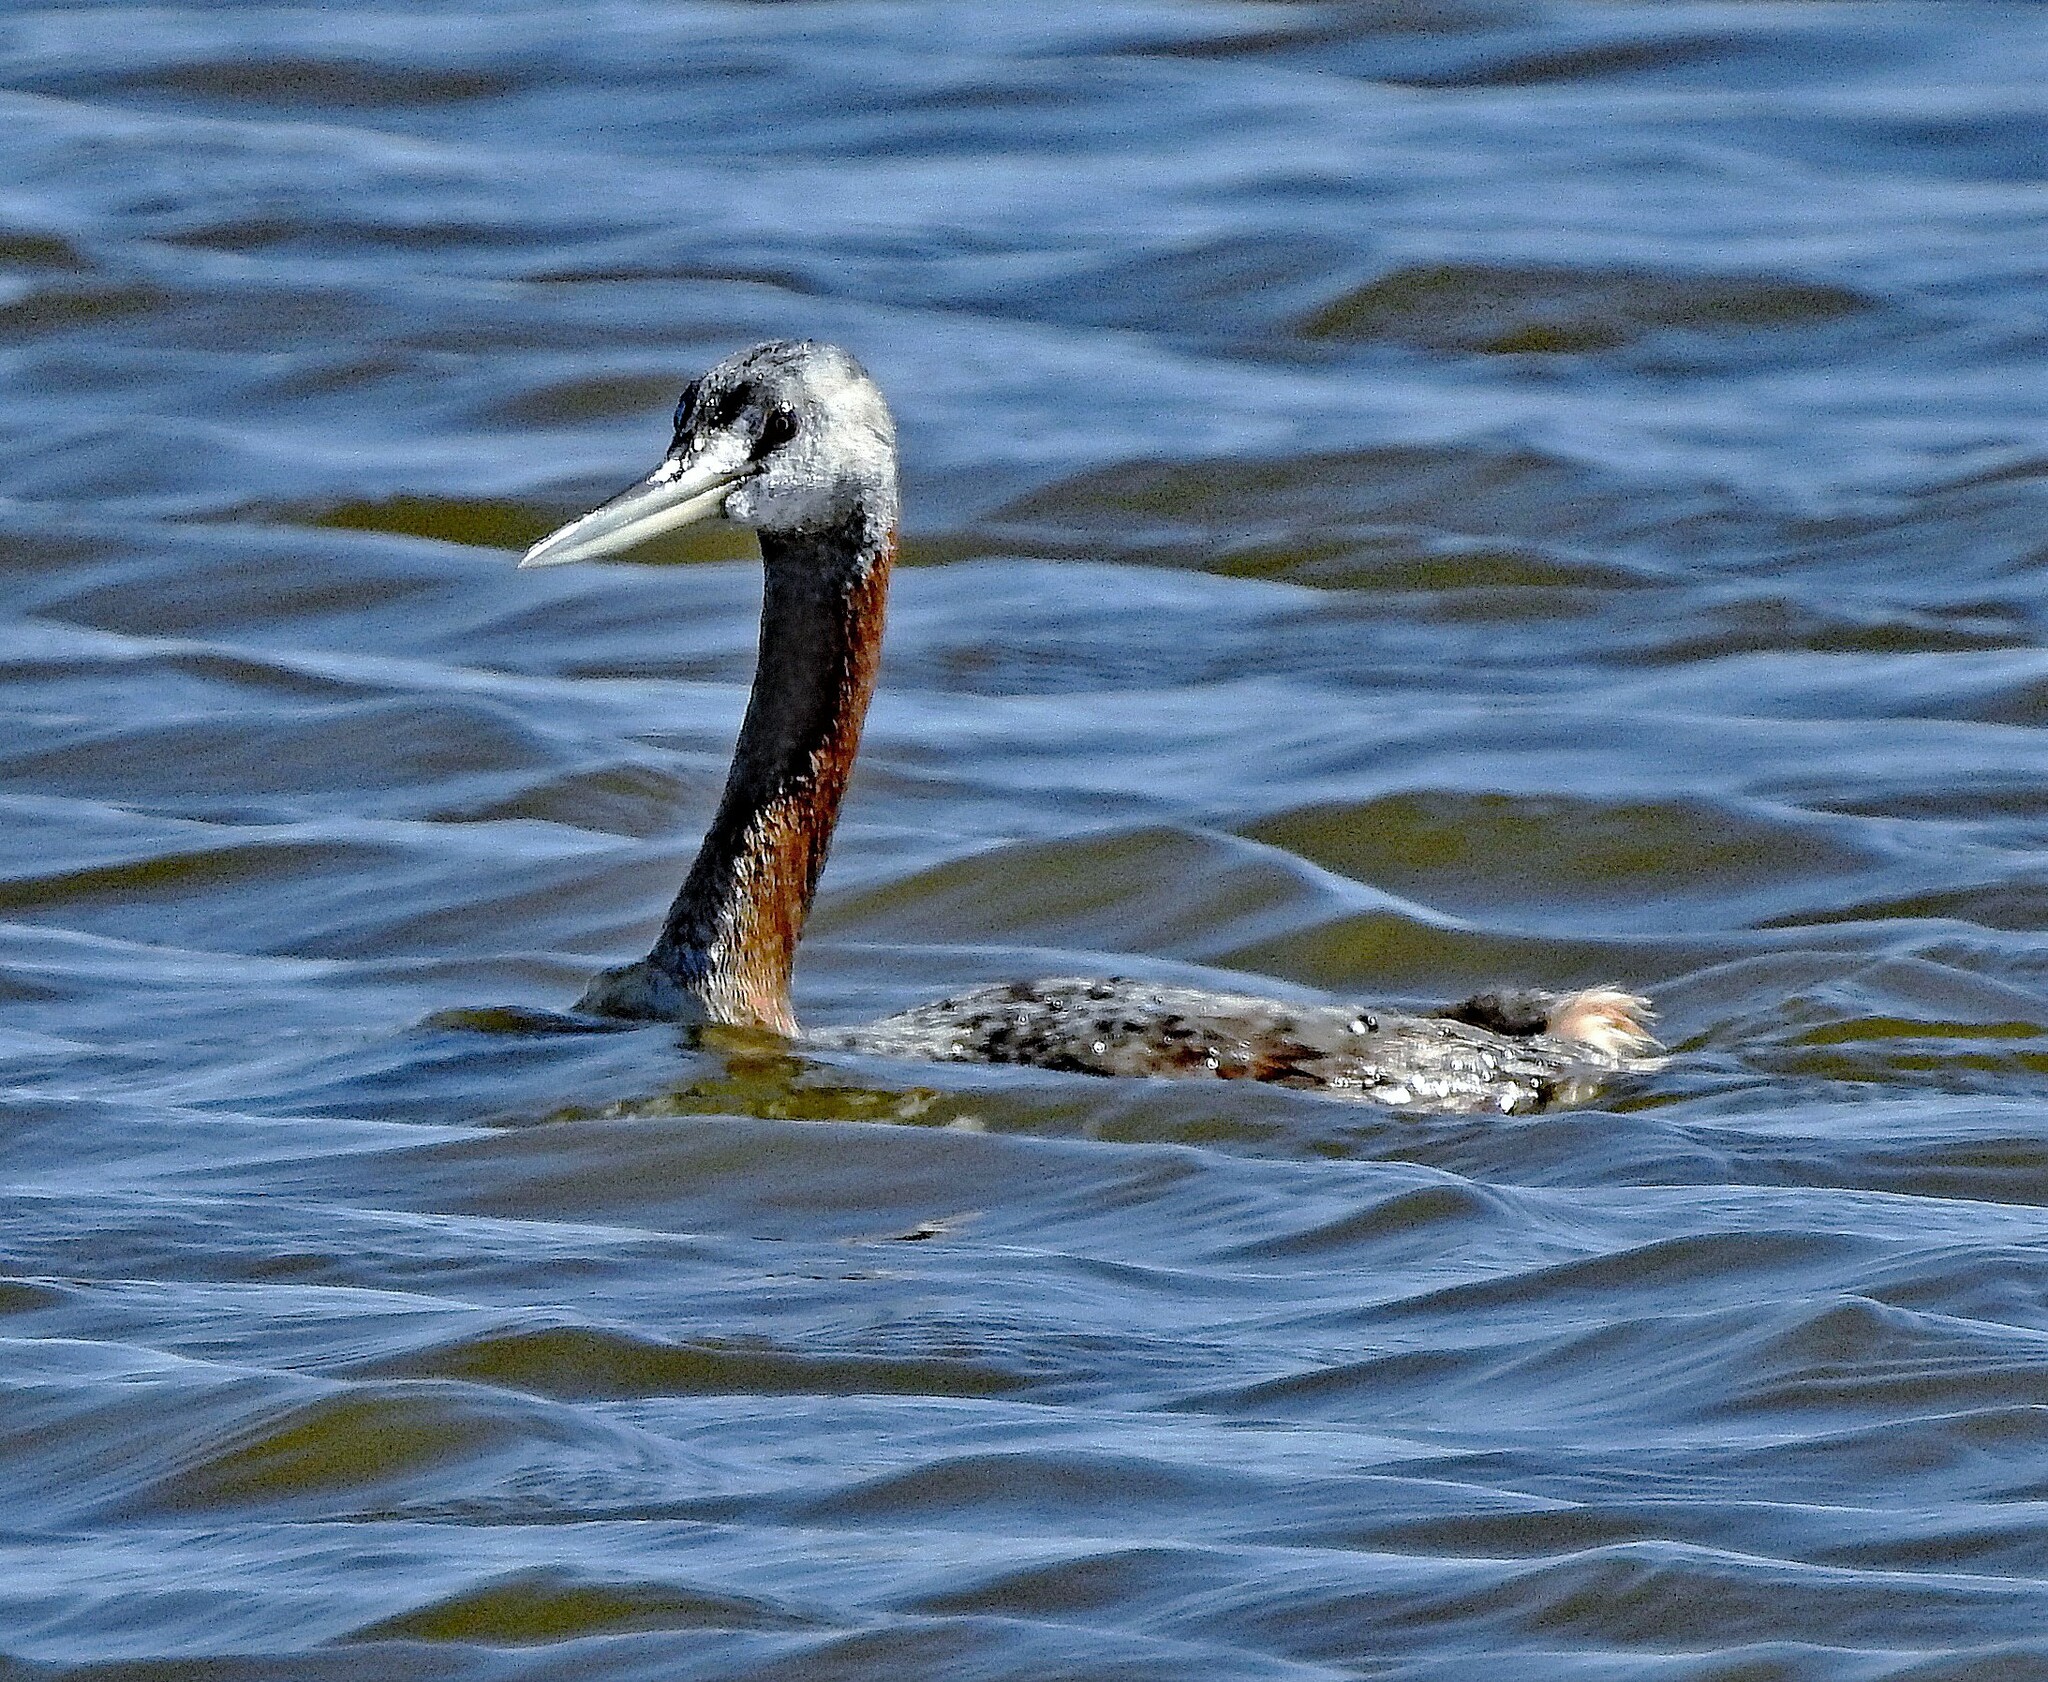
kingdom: Animalia
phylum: Chordata
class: Aves
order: Podicipediformes
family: Podicipedidae
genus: Podiceps
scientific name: Podiceps major
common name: Great grebe
